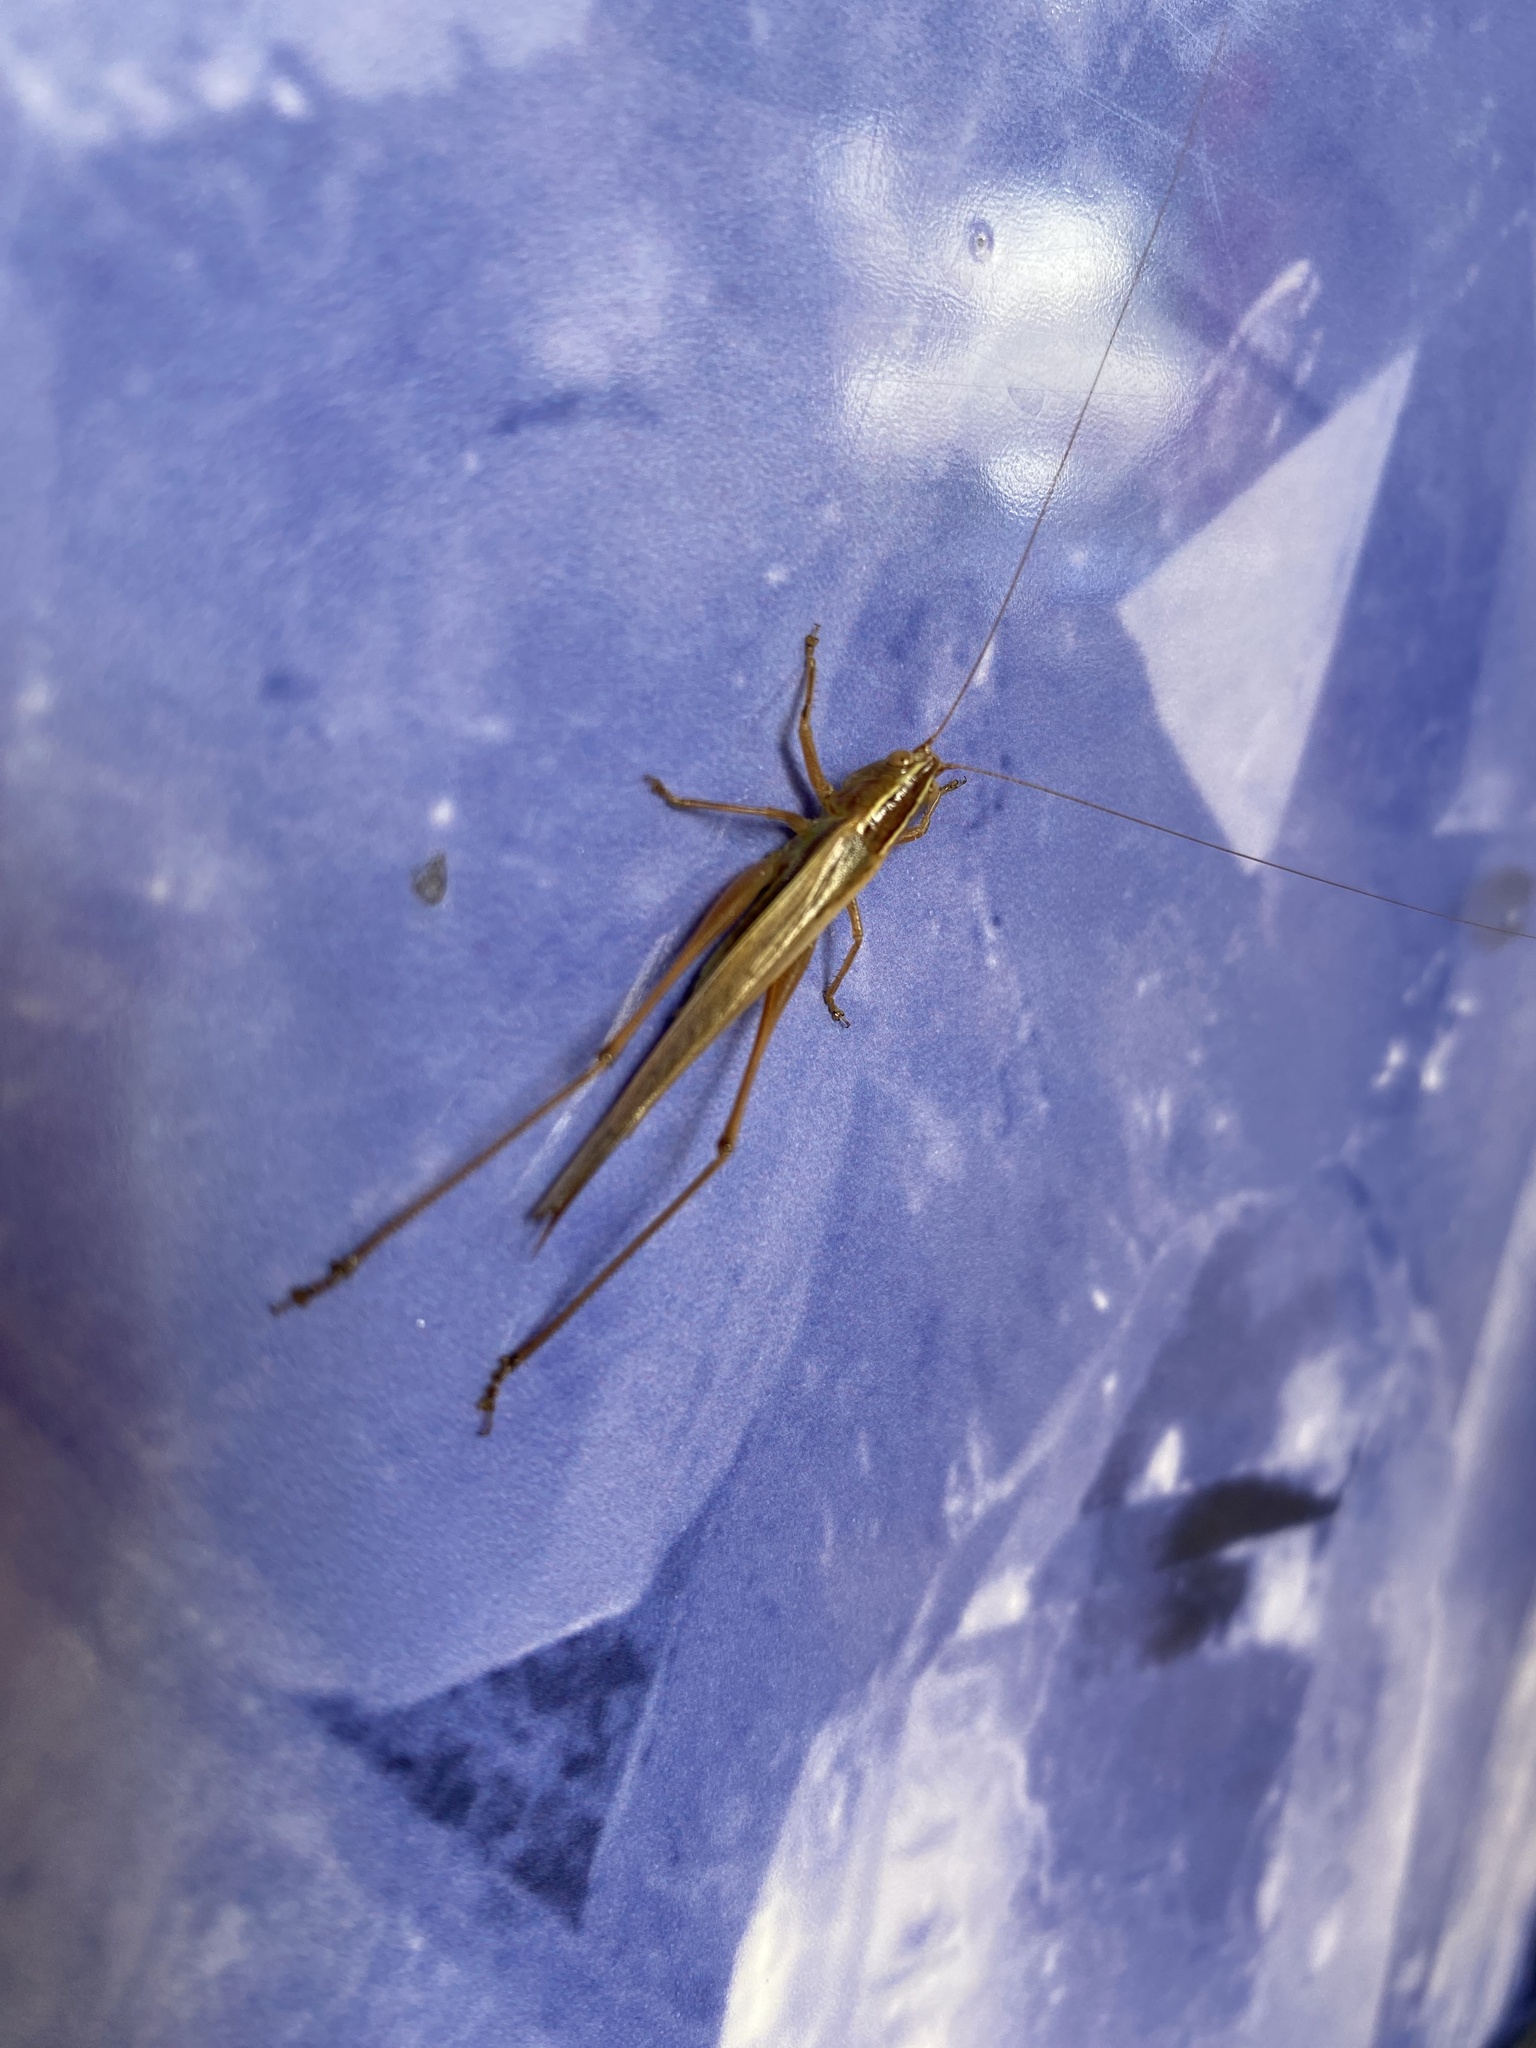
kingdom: Animalia
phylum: Arthropoda
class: Insecta
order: Orthoptera
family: Tettigoniidae
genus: Conocephalus
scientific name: Conocephalus albescens
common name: Whitish meadow katydid
